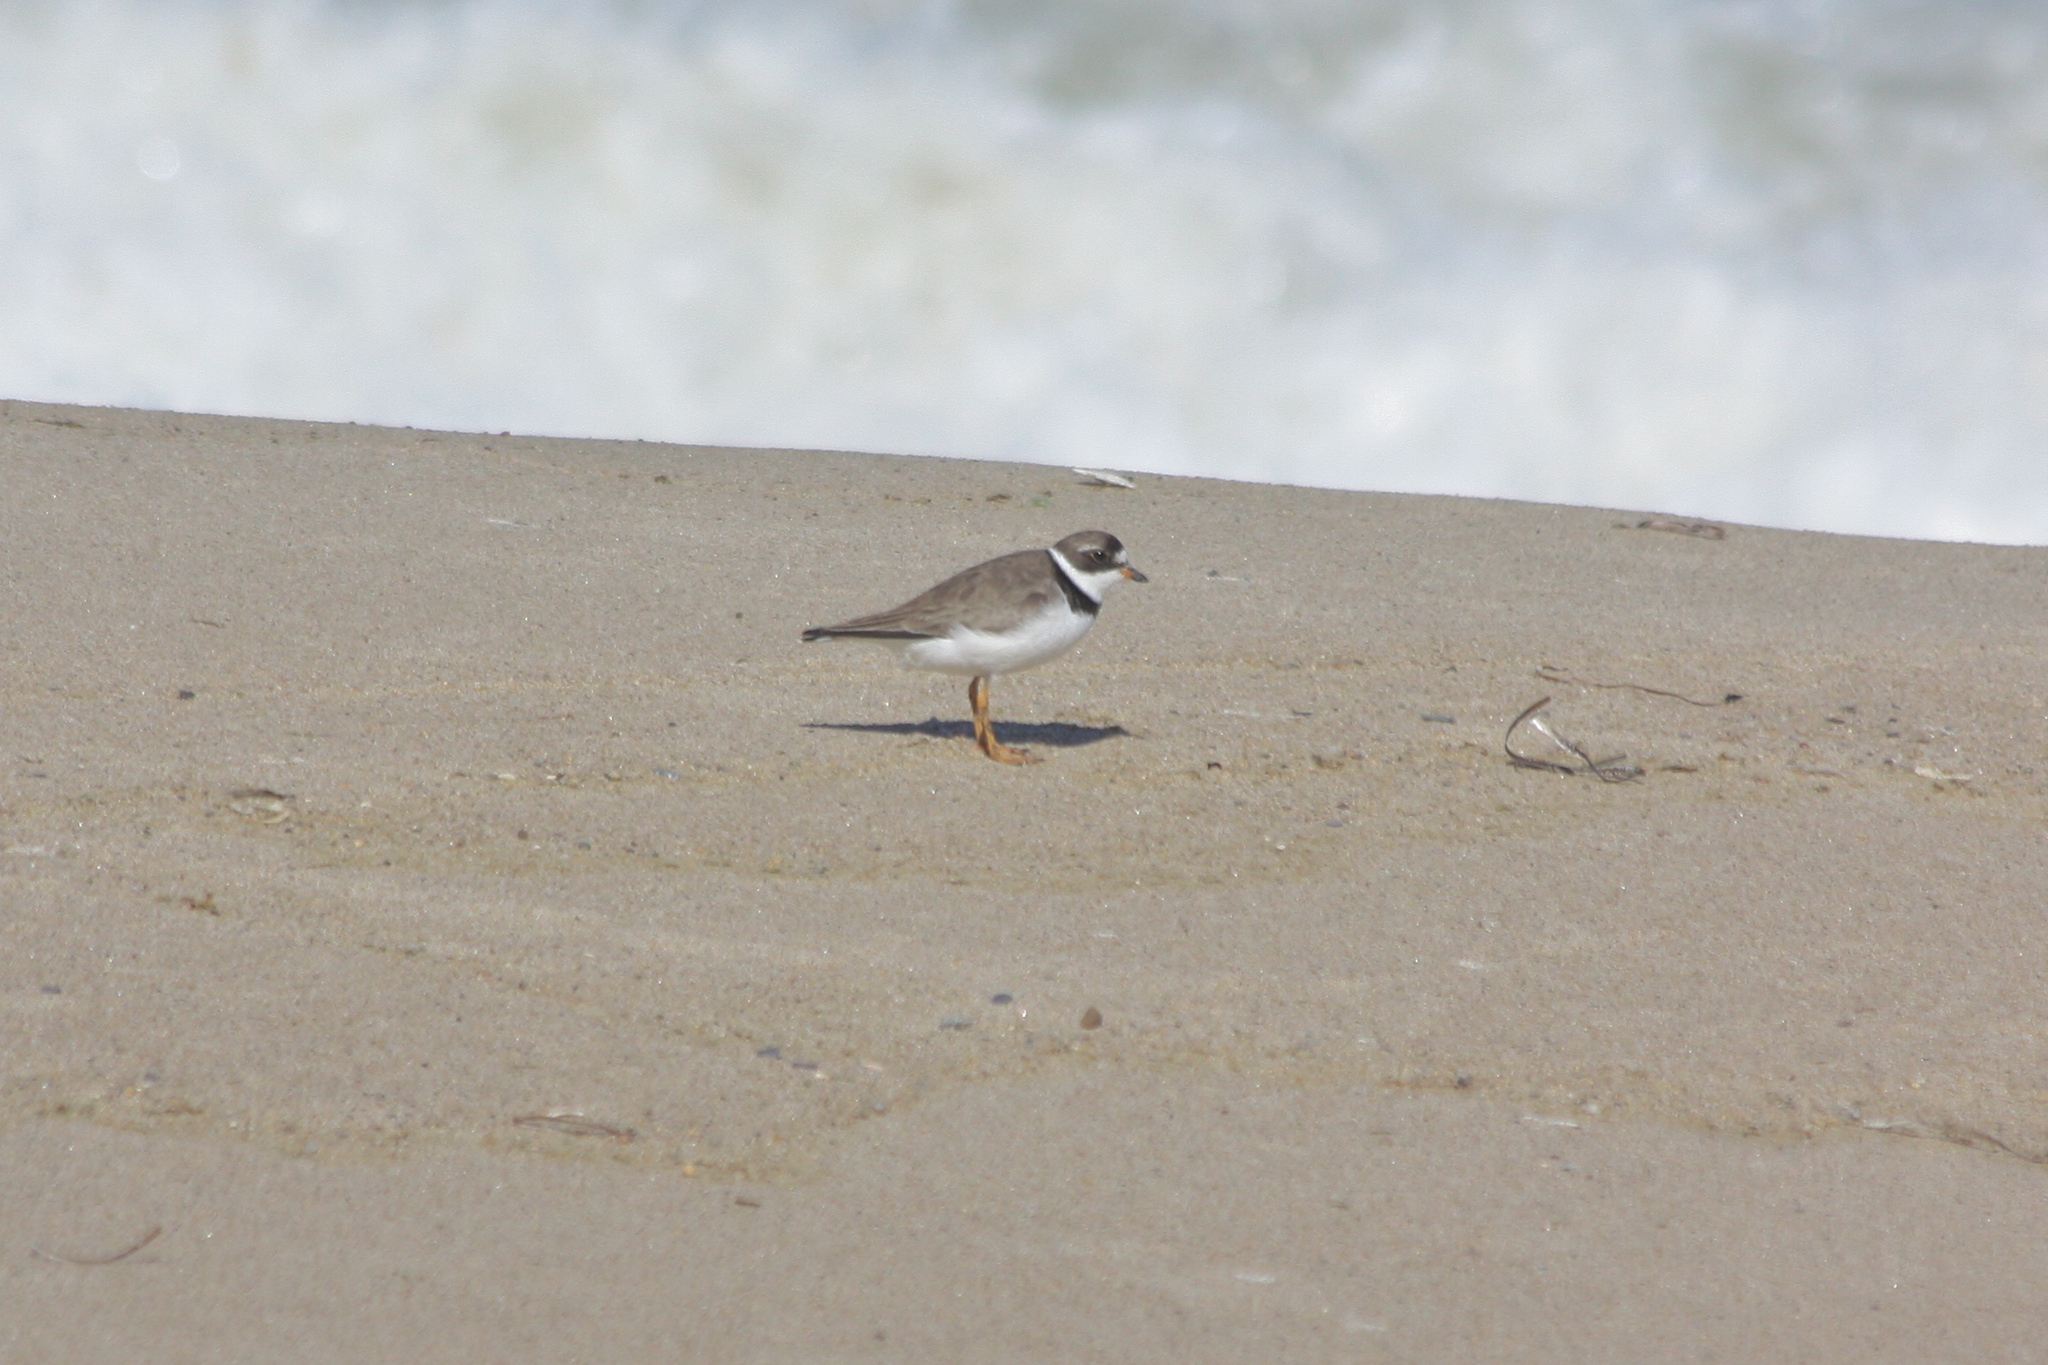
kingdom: Animalia
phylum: Chordata
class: Aves
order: Charadriiformes
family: Charadriidae
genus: Charadrius
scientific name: Charadrius semipalmatus
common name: Semipalmated plover
